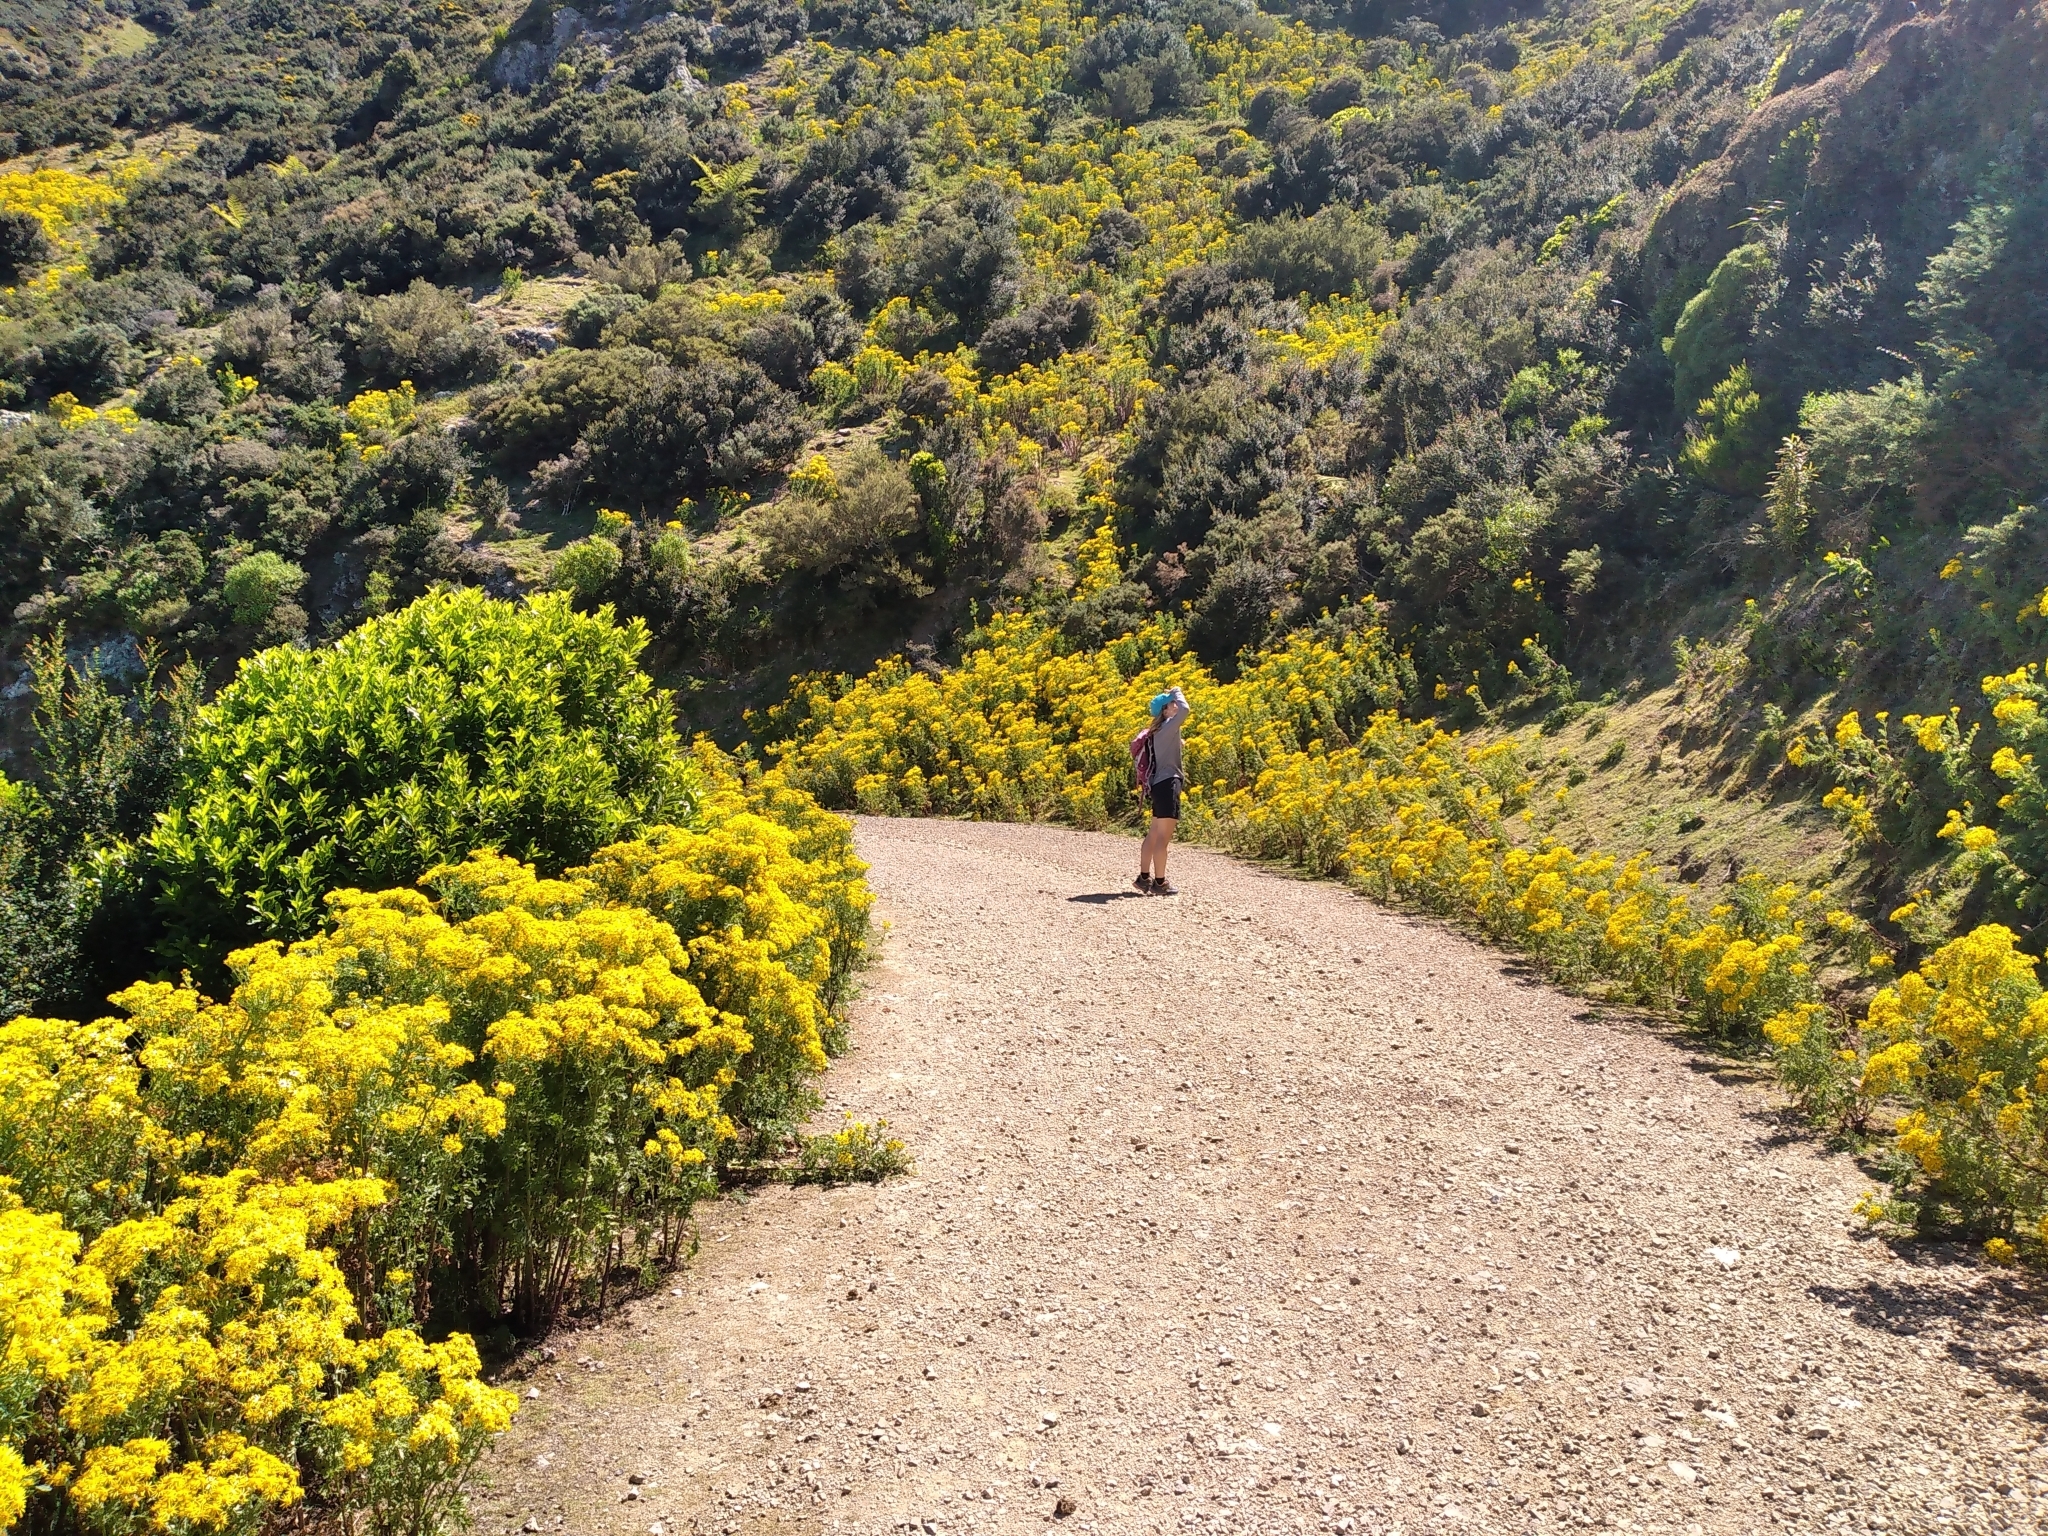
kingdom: Plantae
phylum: Tracheophyta
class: Magnoliopsida
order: Asterales
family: Asteraceae
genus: Jacobaea
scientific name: Jacobaea vulgaris
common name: Stinking willie
